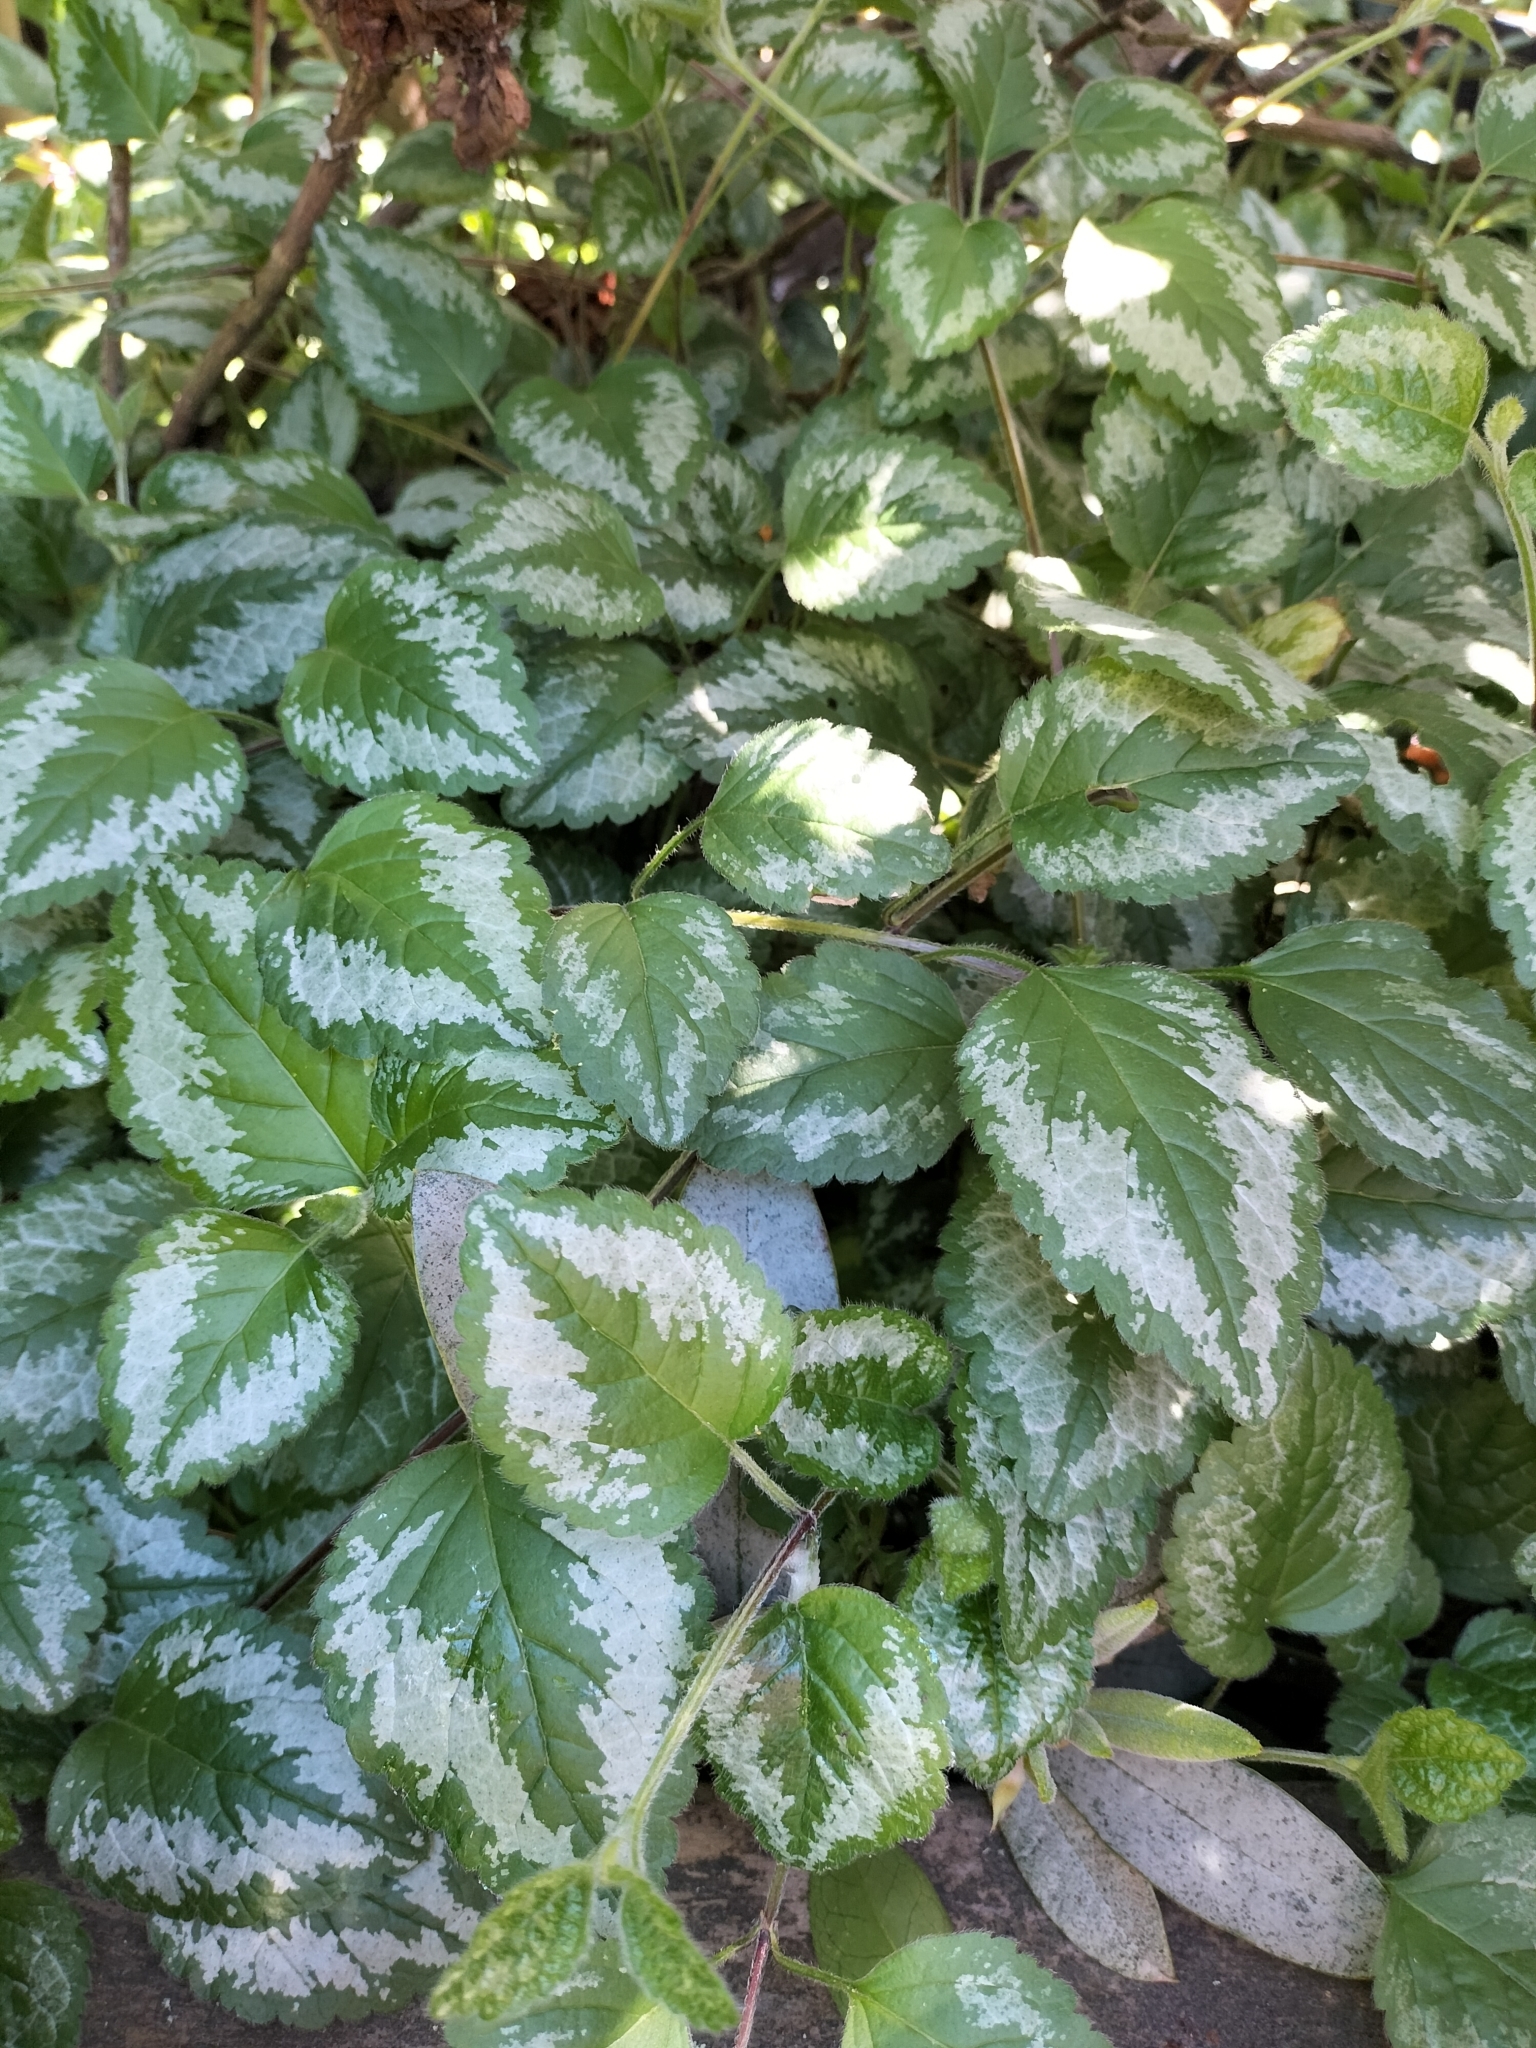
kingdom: Plantae
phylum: Tracheophyta
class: Magnoliopsida
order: Lamiales
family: Lamiaceae
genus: Lamium
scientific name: Lamium galeobdolon
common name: Yellow archangel
